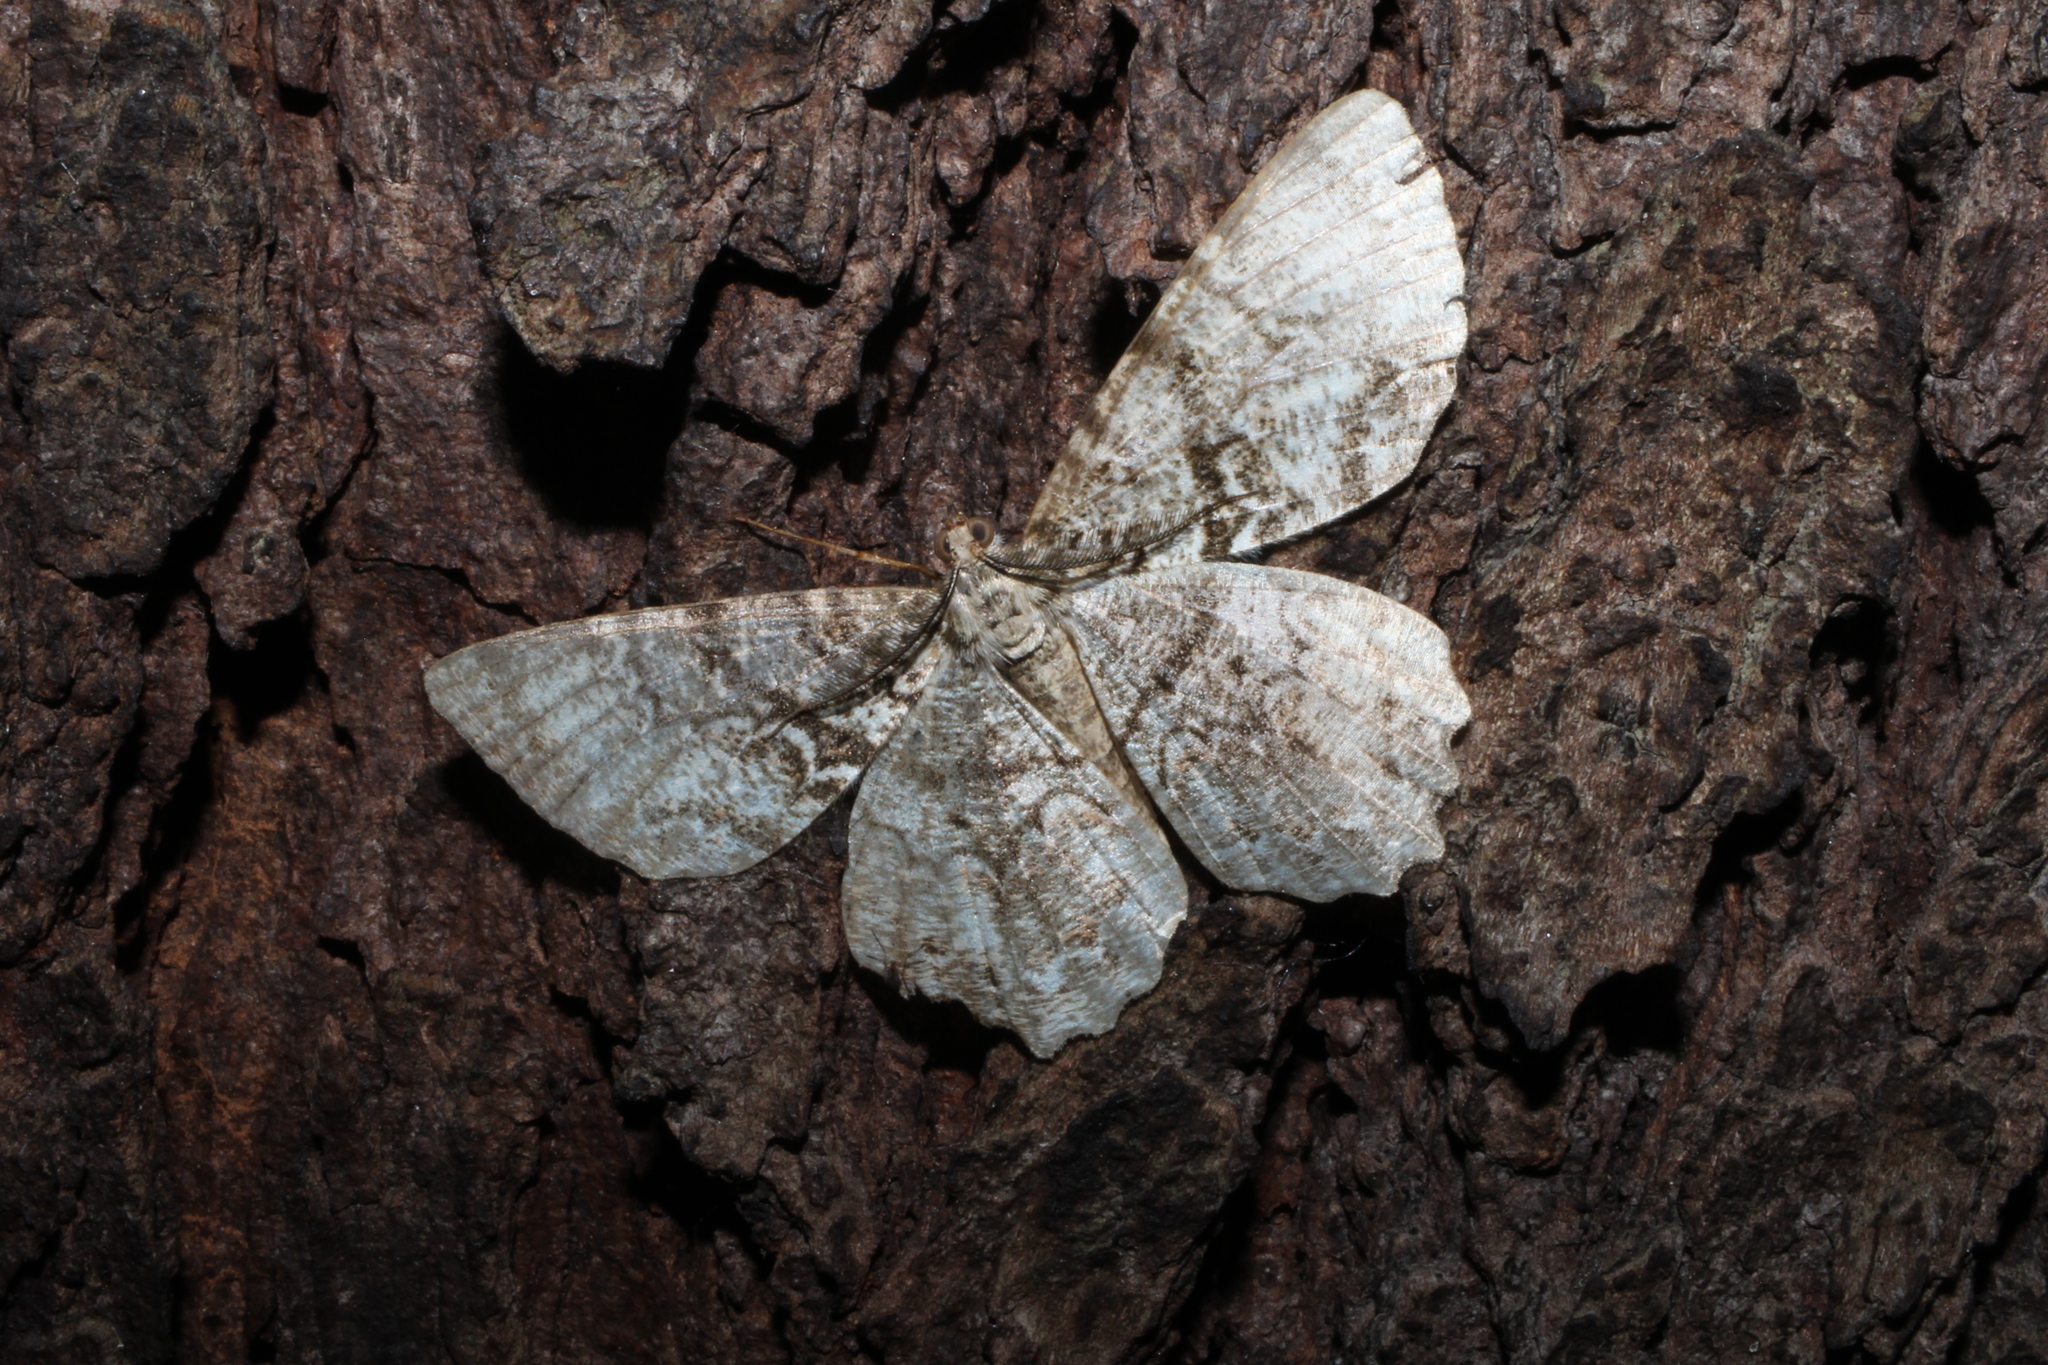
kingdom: Animalia
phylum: Arthropoda
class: Insecta
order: Lepidoptera
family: Geometridae
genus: Epimecis
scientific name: Epimecis hortaria
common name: Tulip-tree beauty
